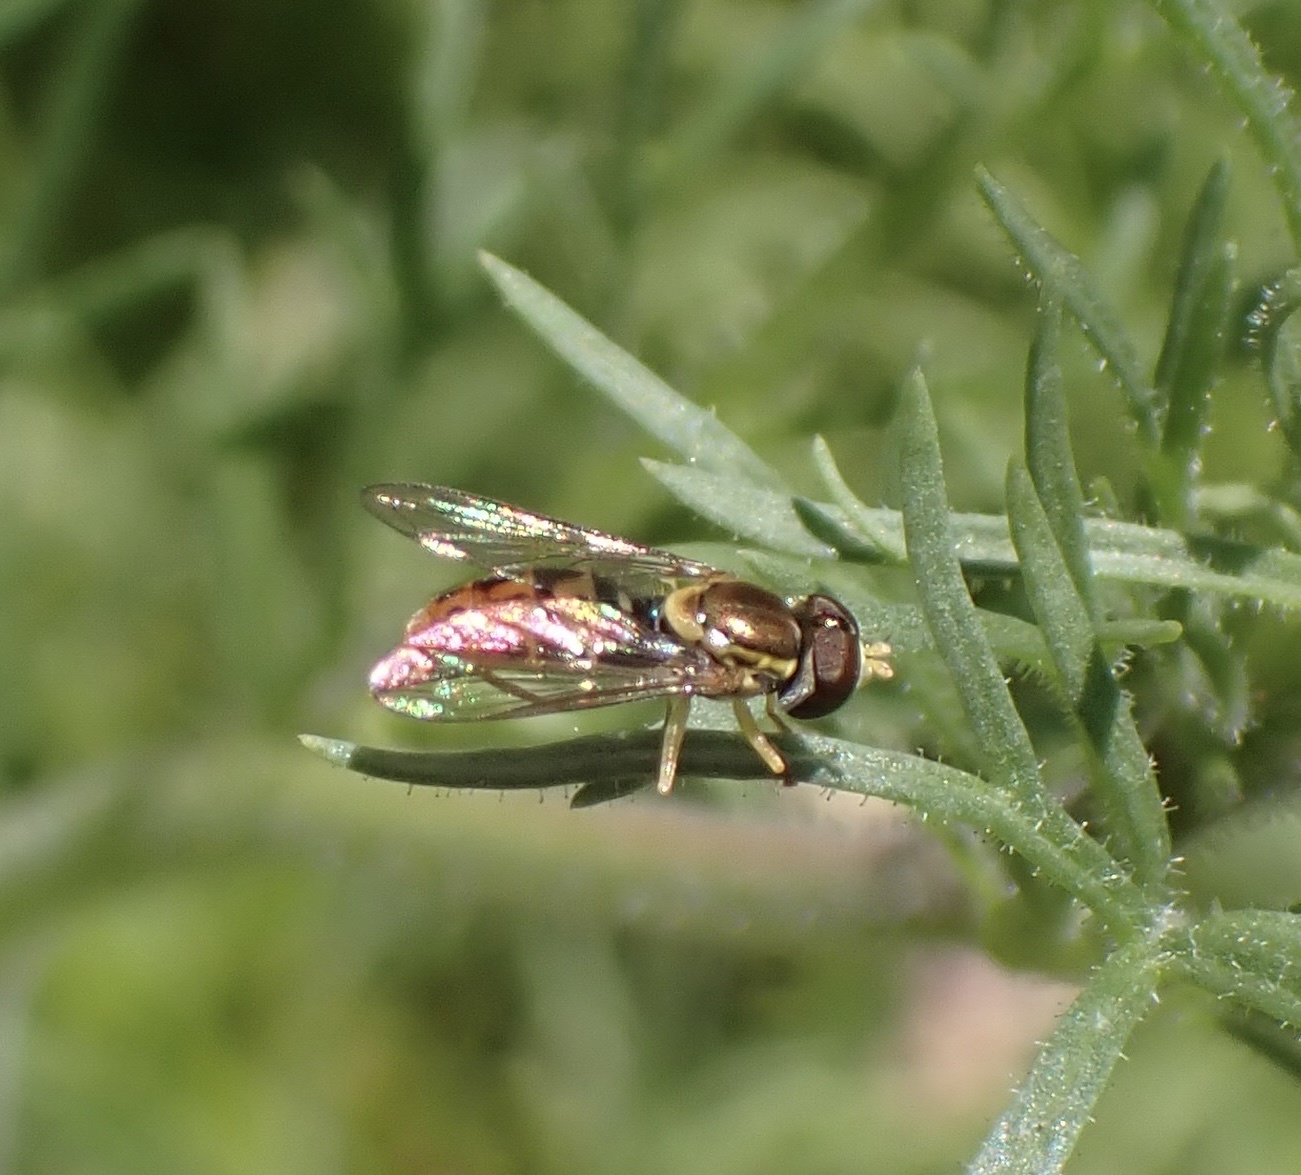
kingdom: Animalia
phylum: Arthropoda
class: Insecta
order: Diptera
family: Syrphidae
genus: Toxomerus
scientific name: Toxomerus marginatus
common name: Syrphid fly
